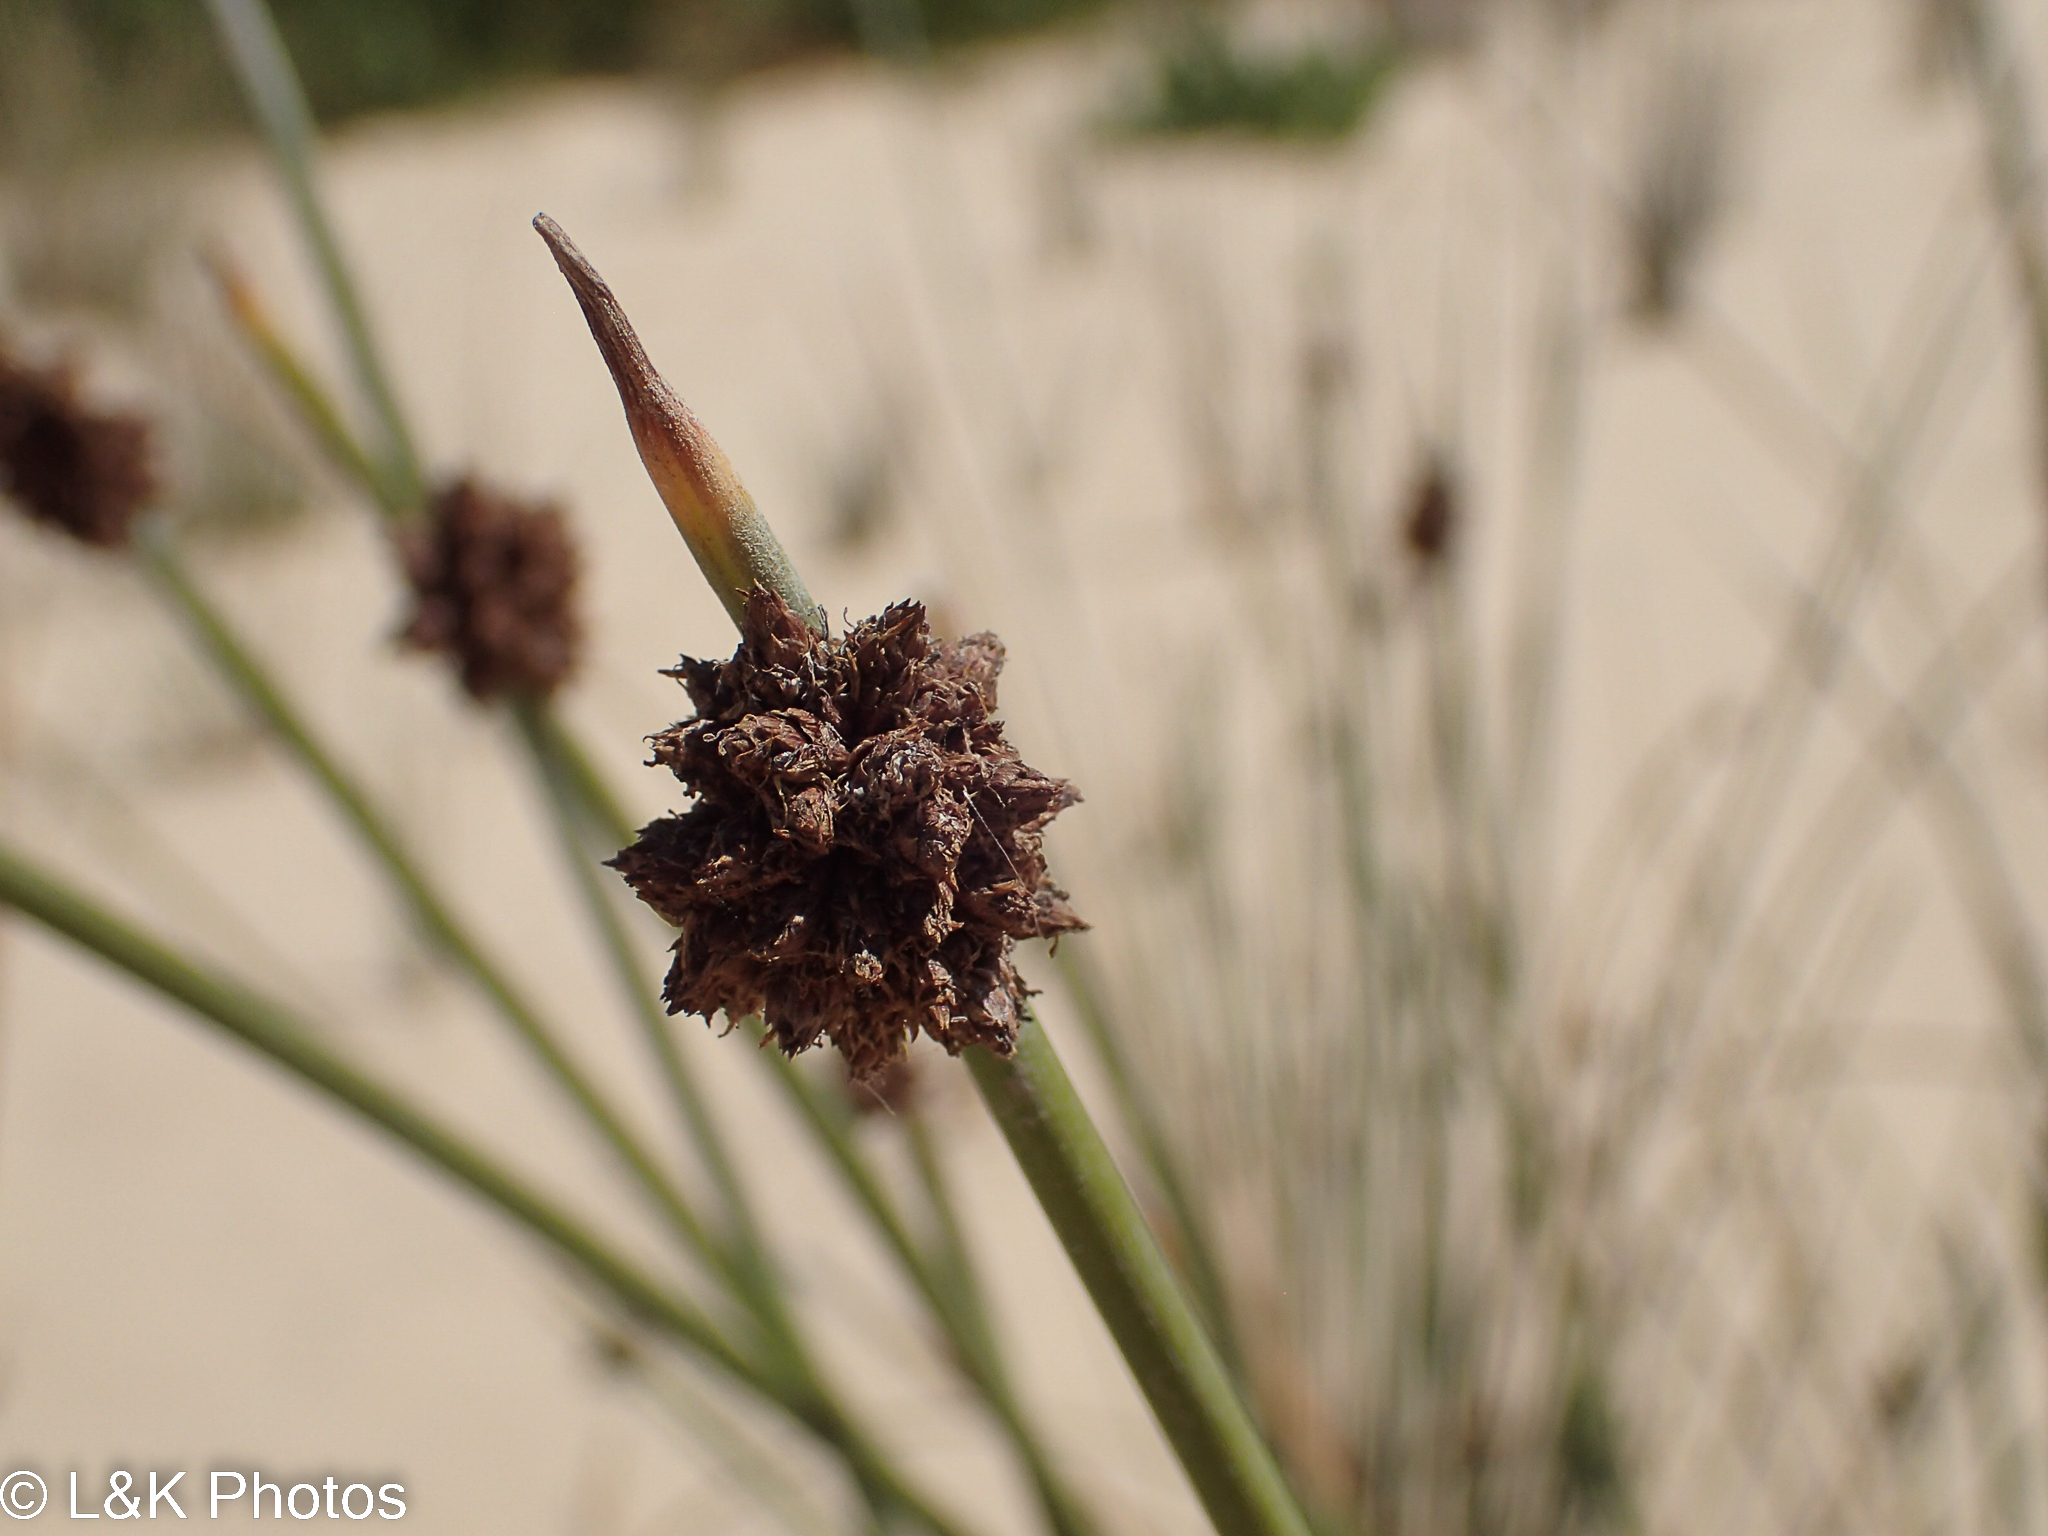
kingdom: Plantae
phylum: Tracheophyta
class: Liliopsida
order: Poales
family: Cyperaceae
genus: Ficinia
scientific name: Ficinia nodosa
